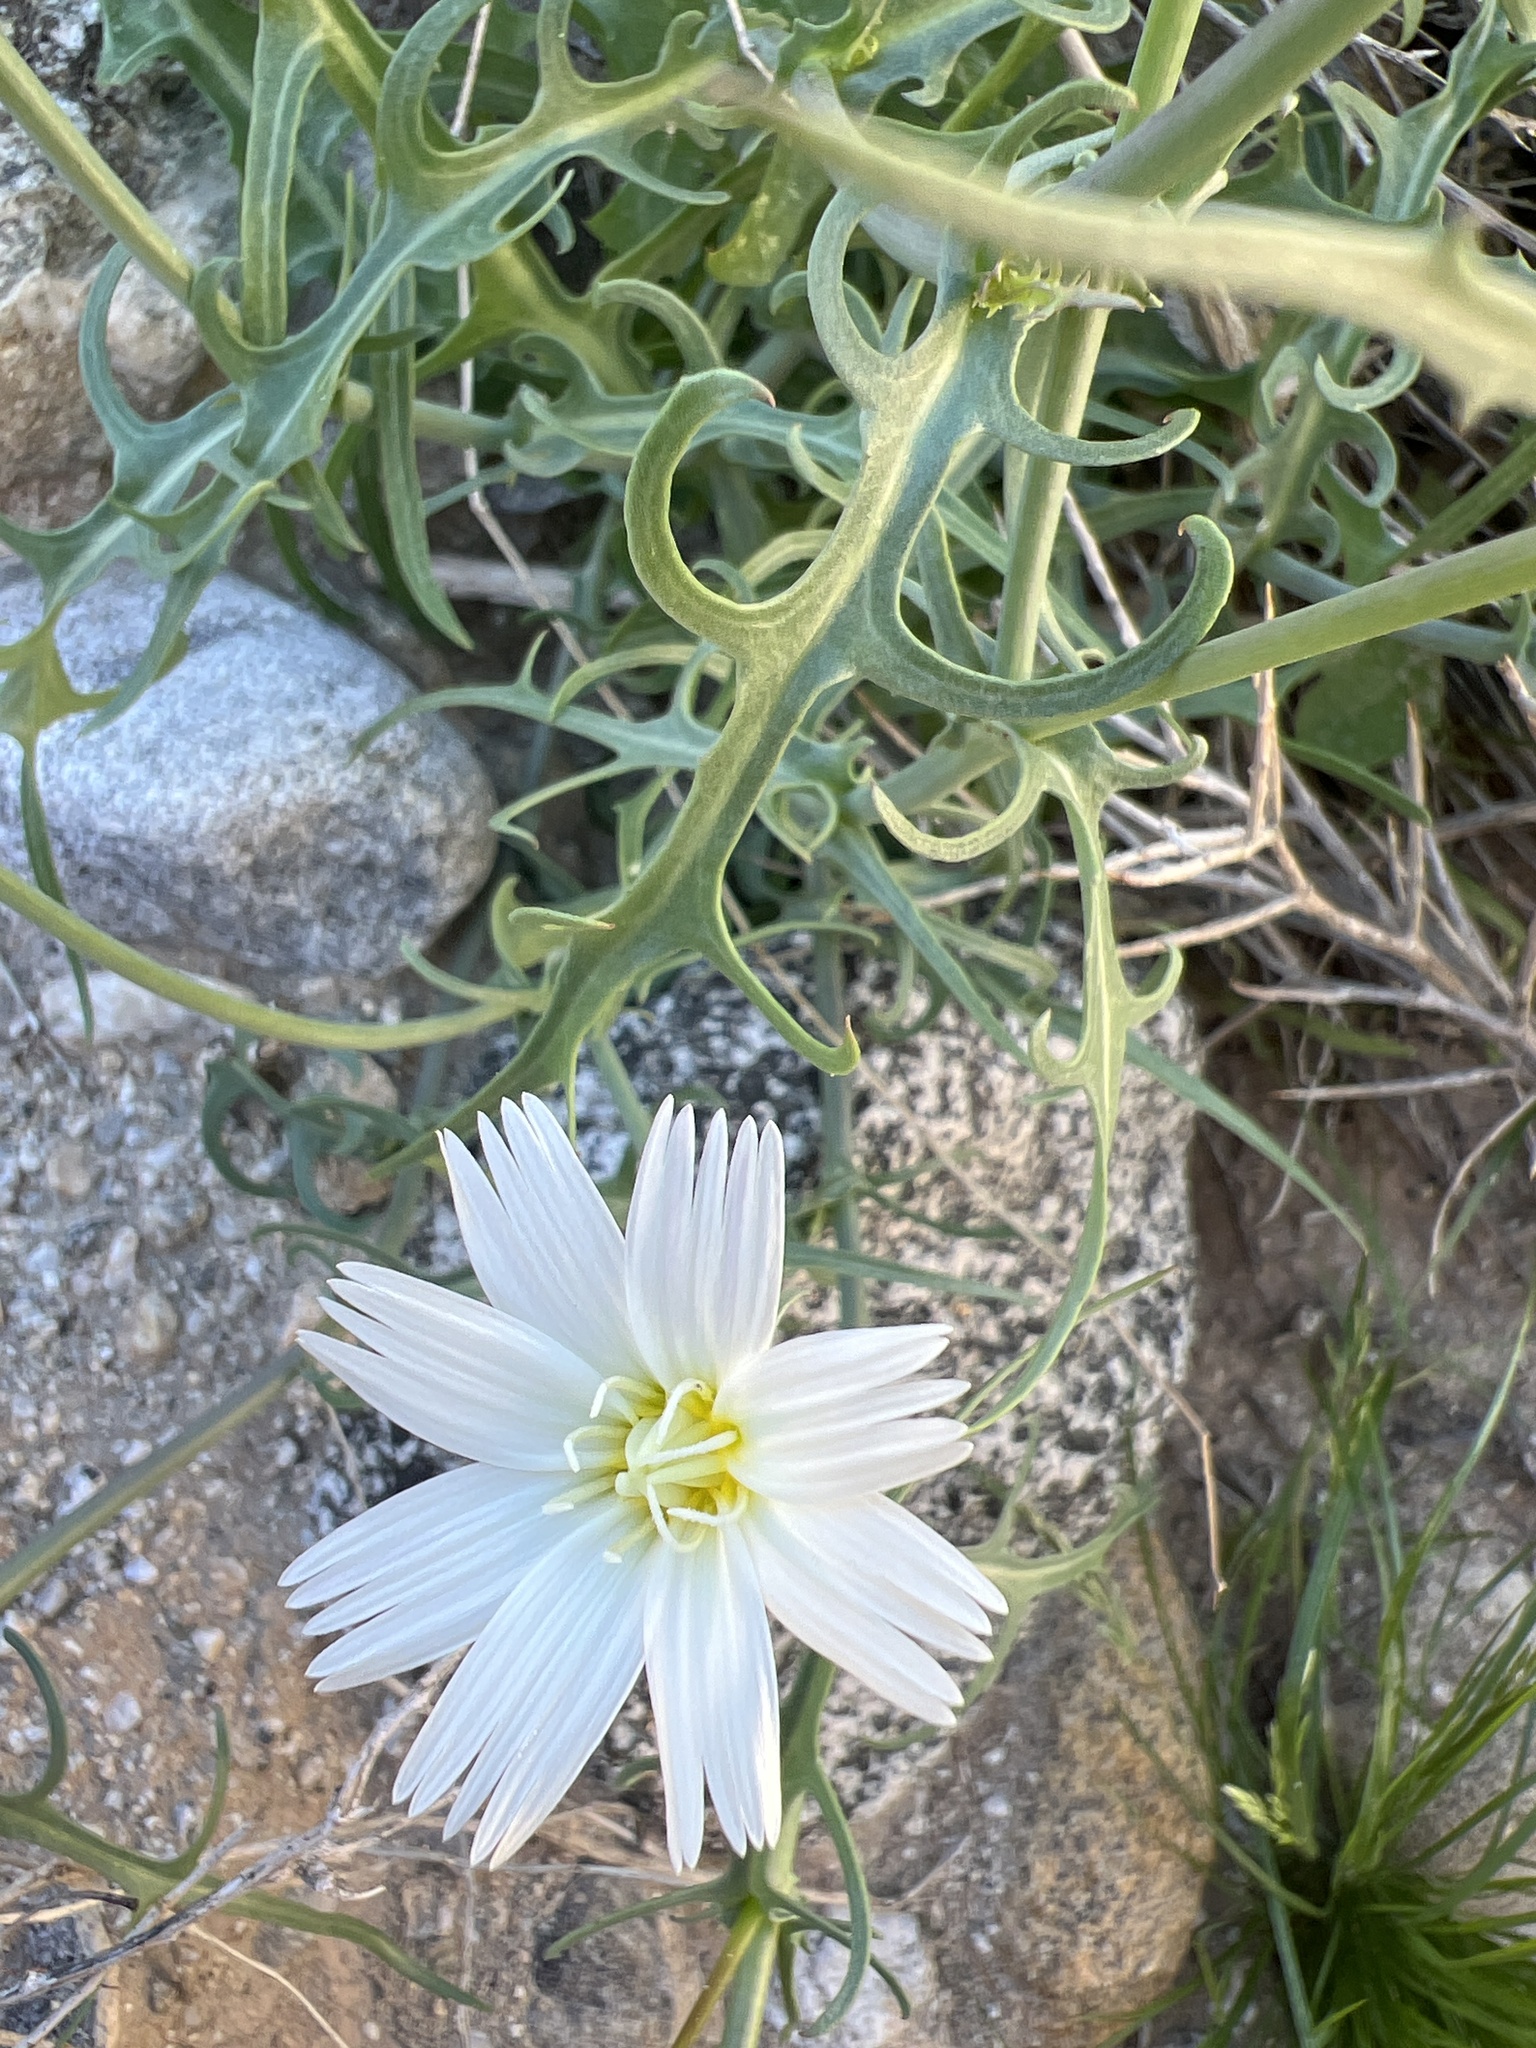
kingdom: Plantae
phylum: Tracheophyta
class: Magnoliopsida
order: Asterales
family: Asteraceae
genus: Rafinesquia
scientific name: Rafinesquia neomexicana
